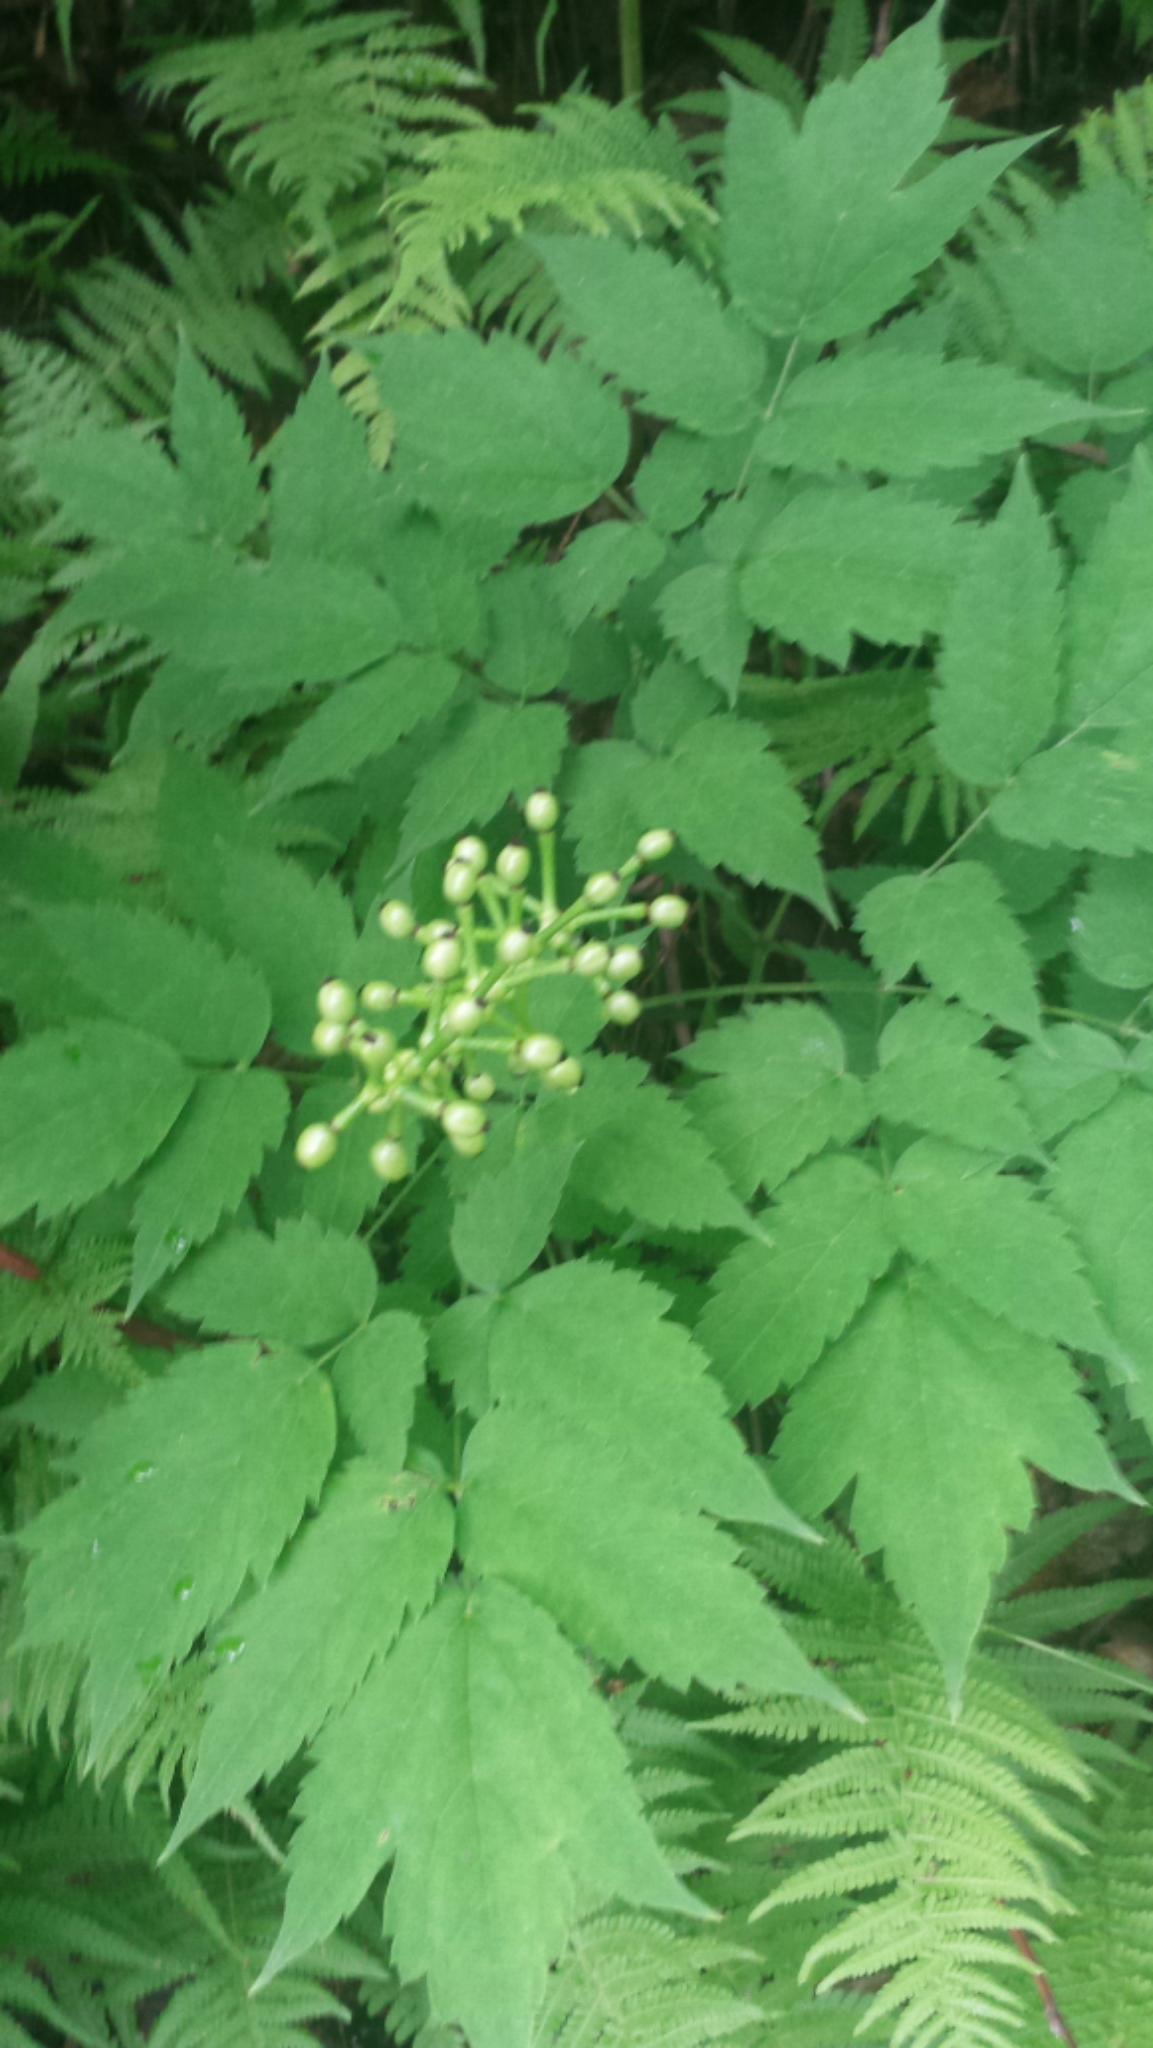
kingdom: Plantae
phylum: Tracheophyta
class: Magnoliopsida
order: Ranunculales
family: Ranunculaceae
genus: Actaea
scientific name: Actaea pachypoda
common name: Doll's-eyes
